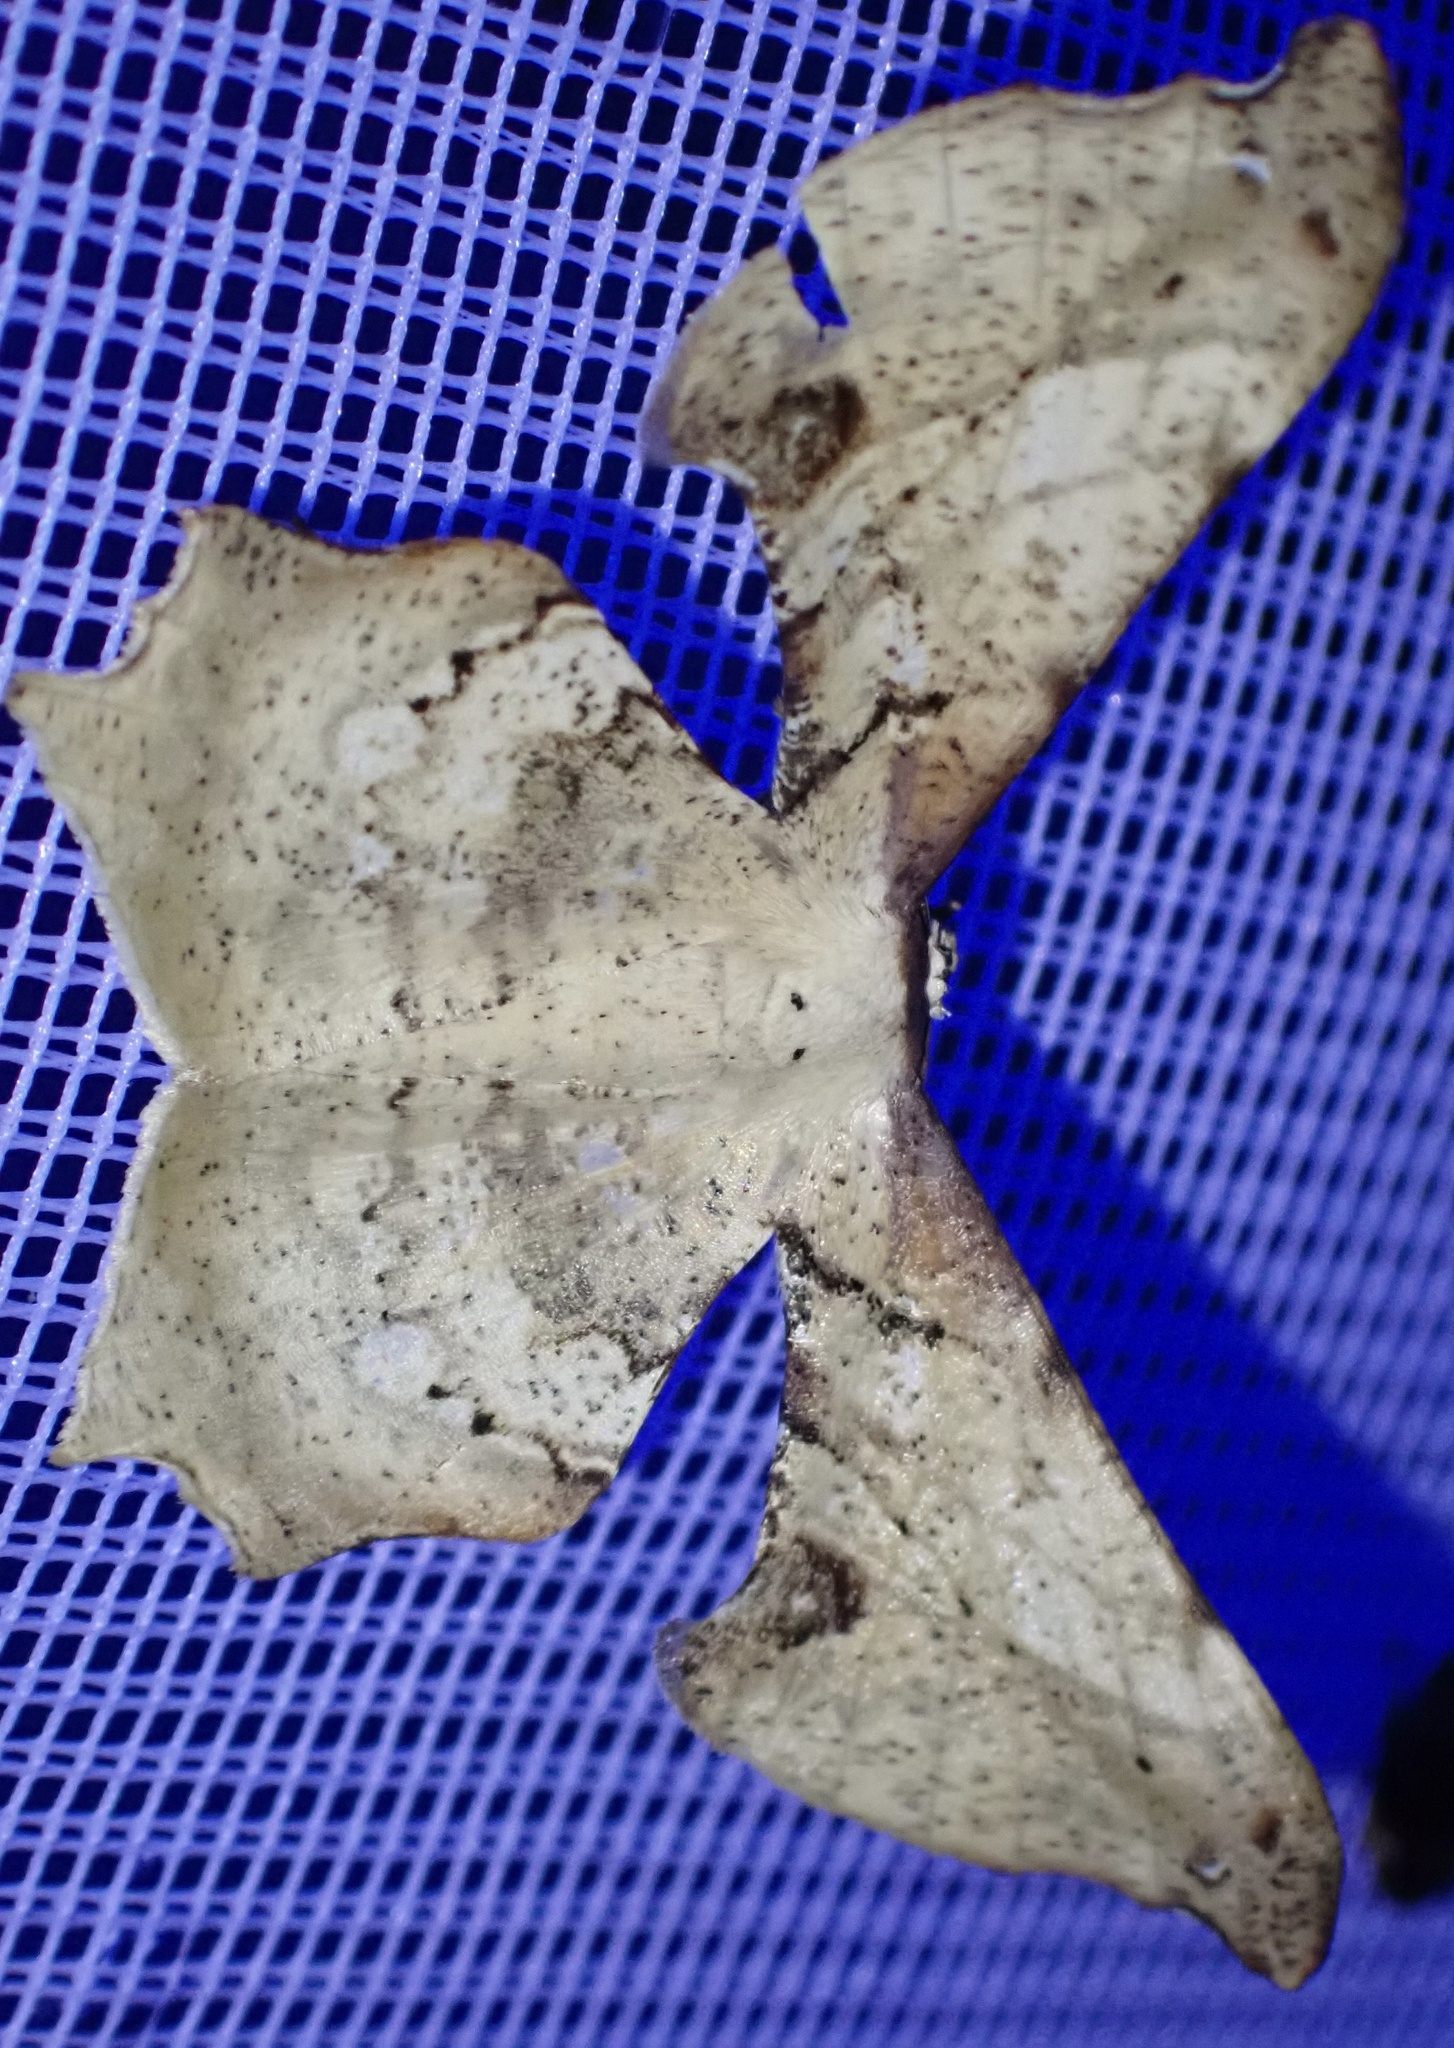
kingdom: Animalia
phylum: Arthropoda
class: Insecta
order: Lepidoptera
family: Geometridae
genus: Xylinophylla
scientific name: Xylinophylla maculata
